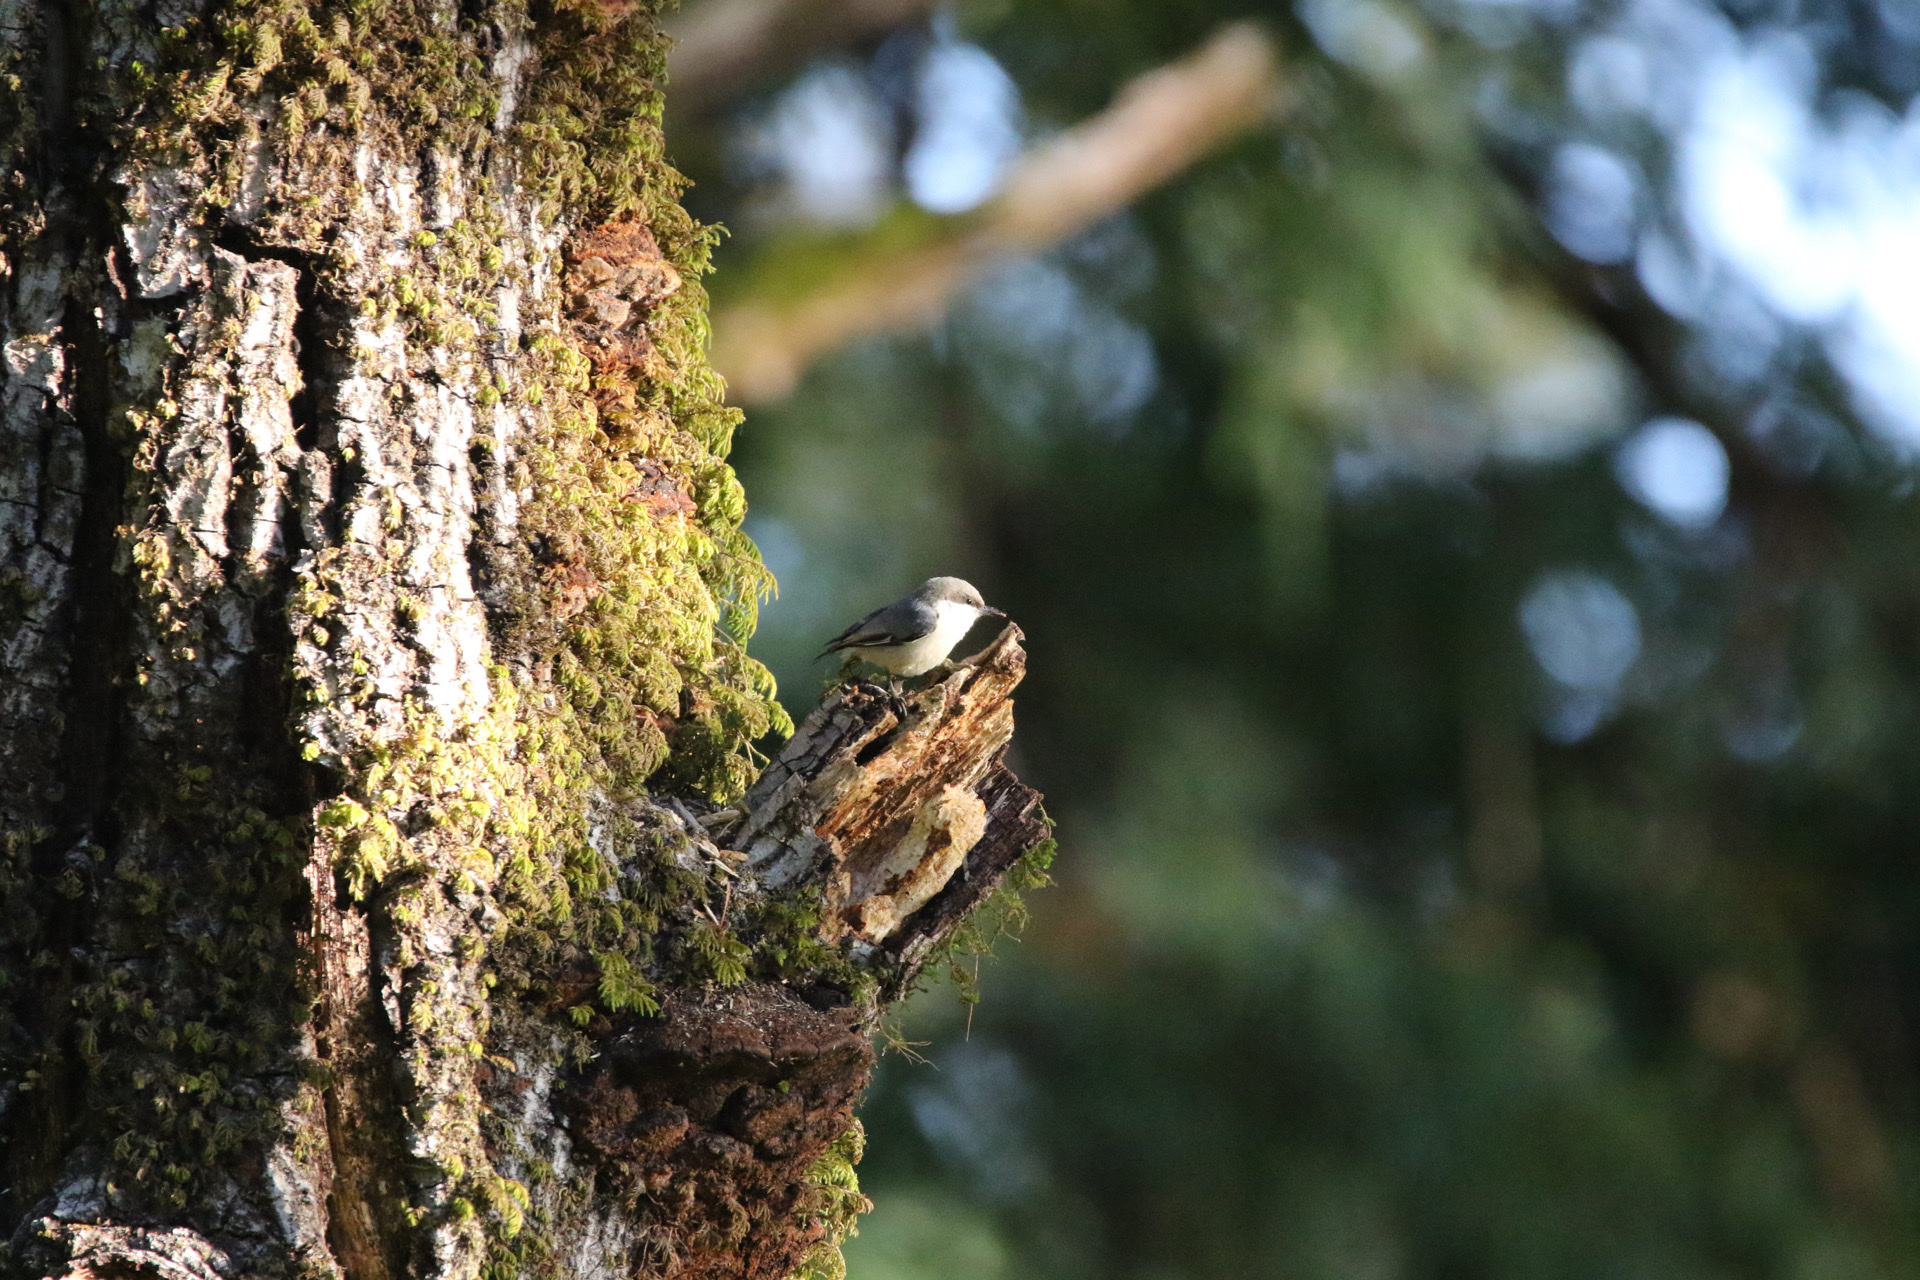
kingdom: Animalia
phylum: Chordata
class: Aves
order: Passeriformes
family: Sittidae
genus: Sitta
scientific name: Sitta pygmaea
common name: Pygmy nuthatch
